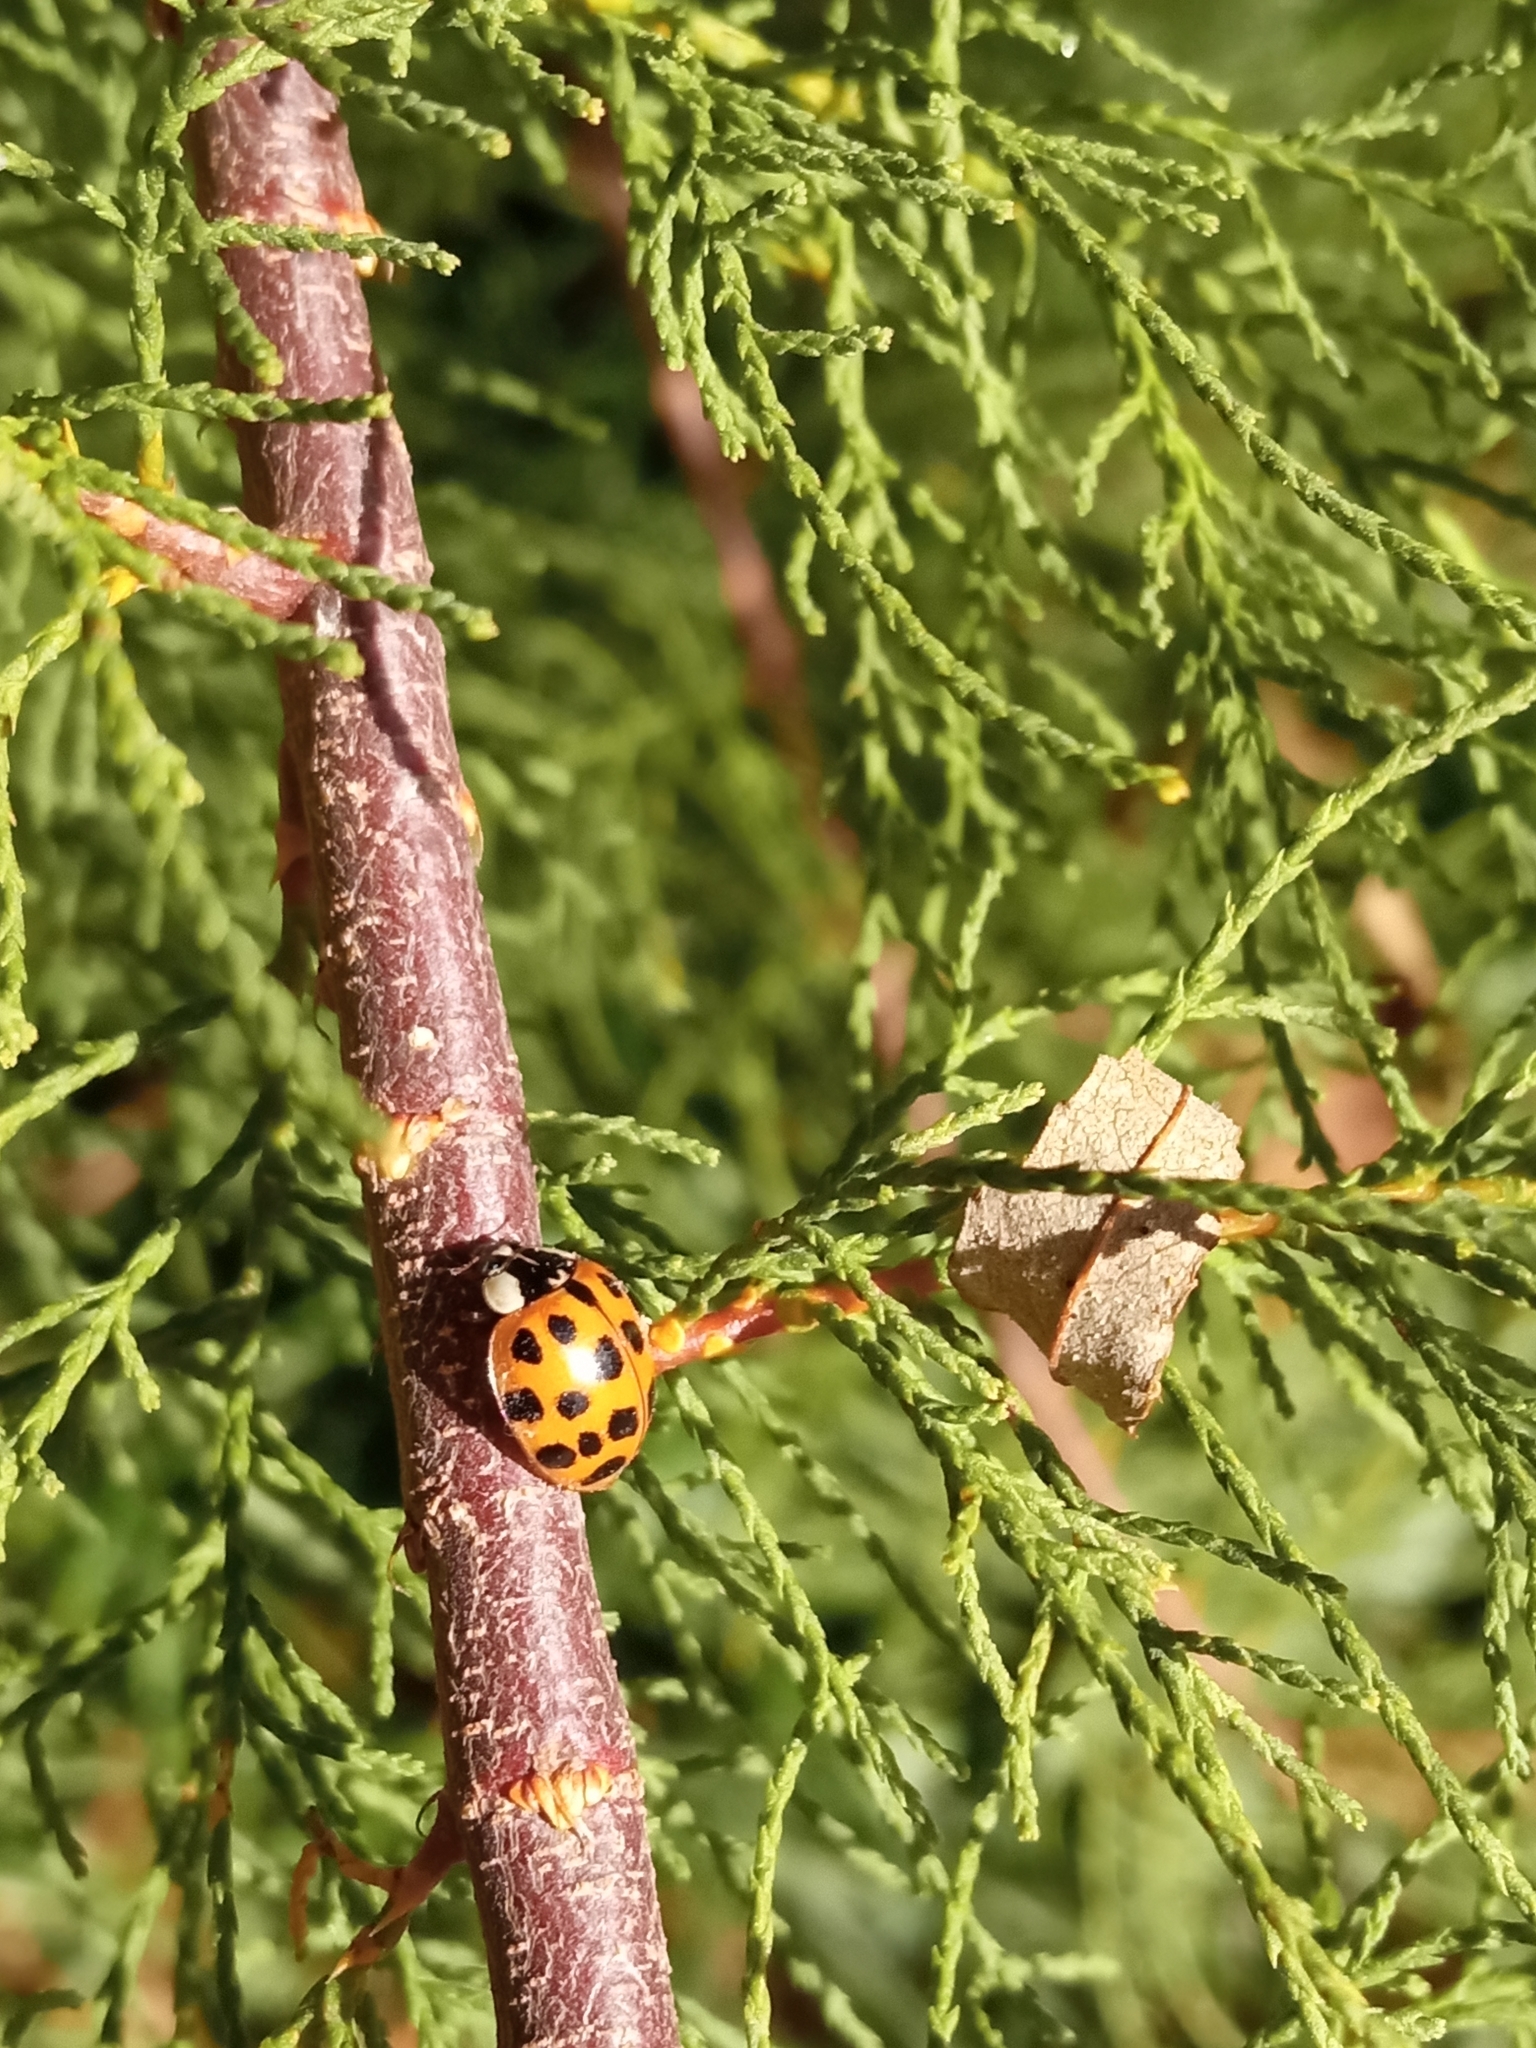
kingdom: Animalia
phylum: Arthropoda
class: Insecta
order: Coleoptera
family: Coccinellidae
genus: Harmonia
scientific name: Harmonia axyridis
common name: Harlequin ladybird
